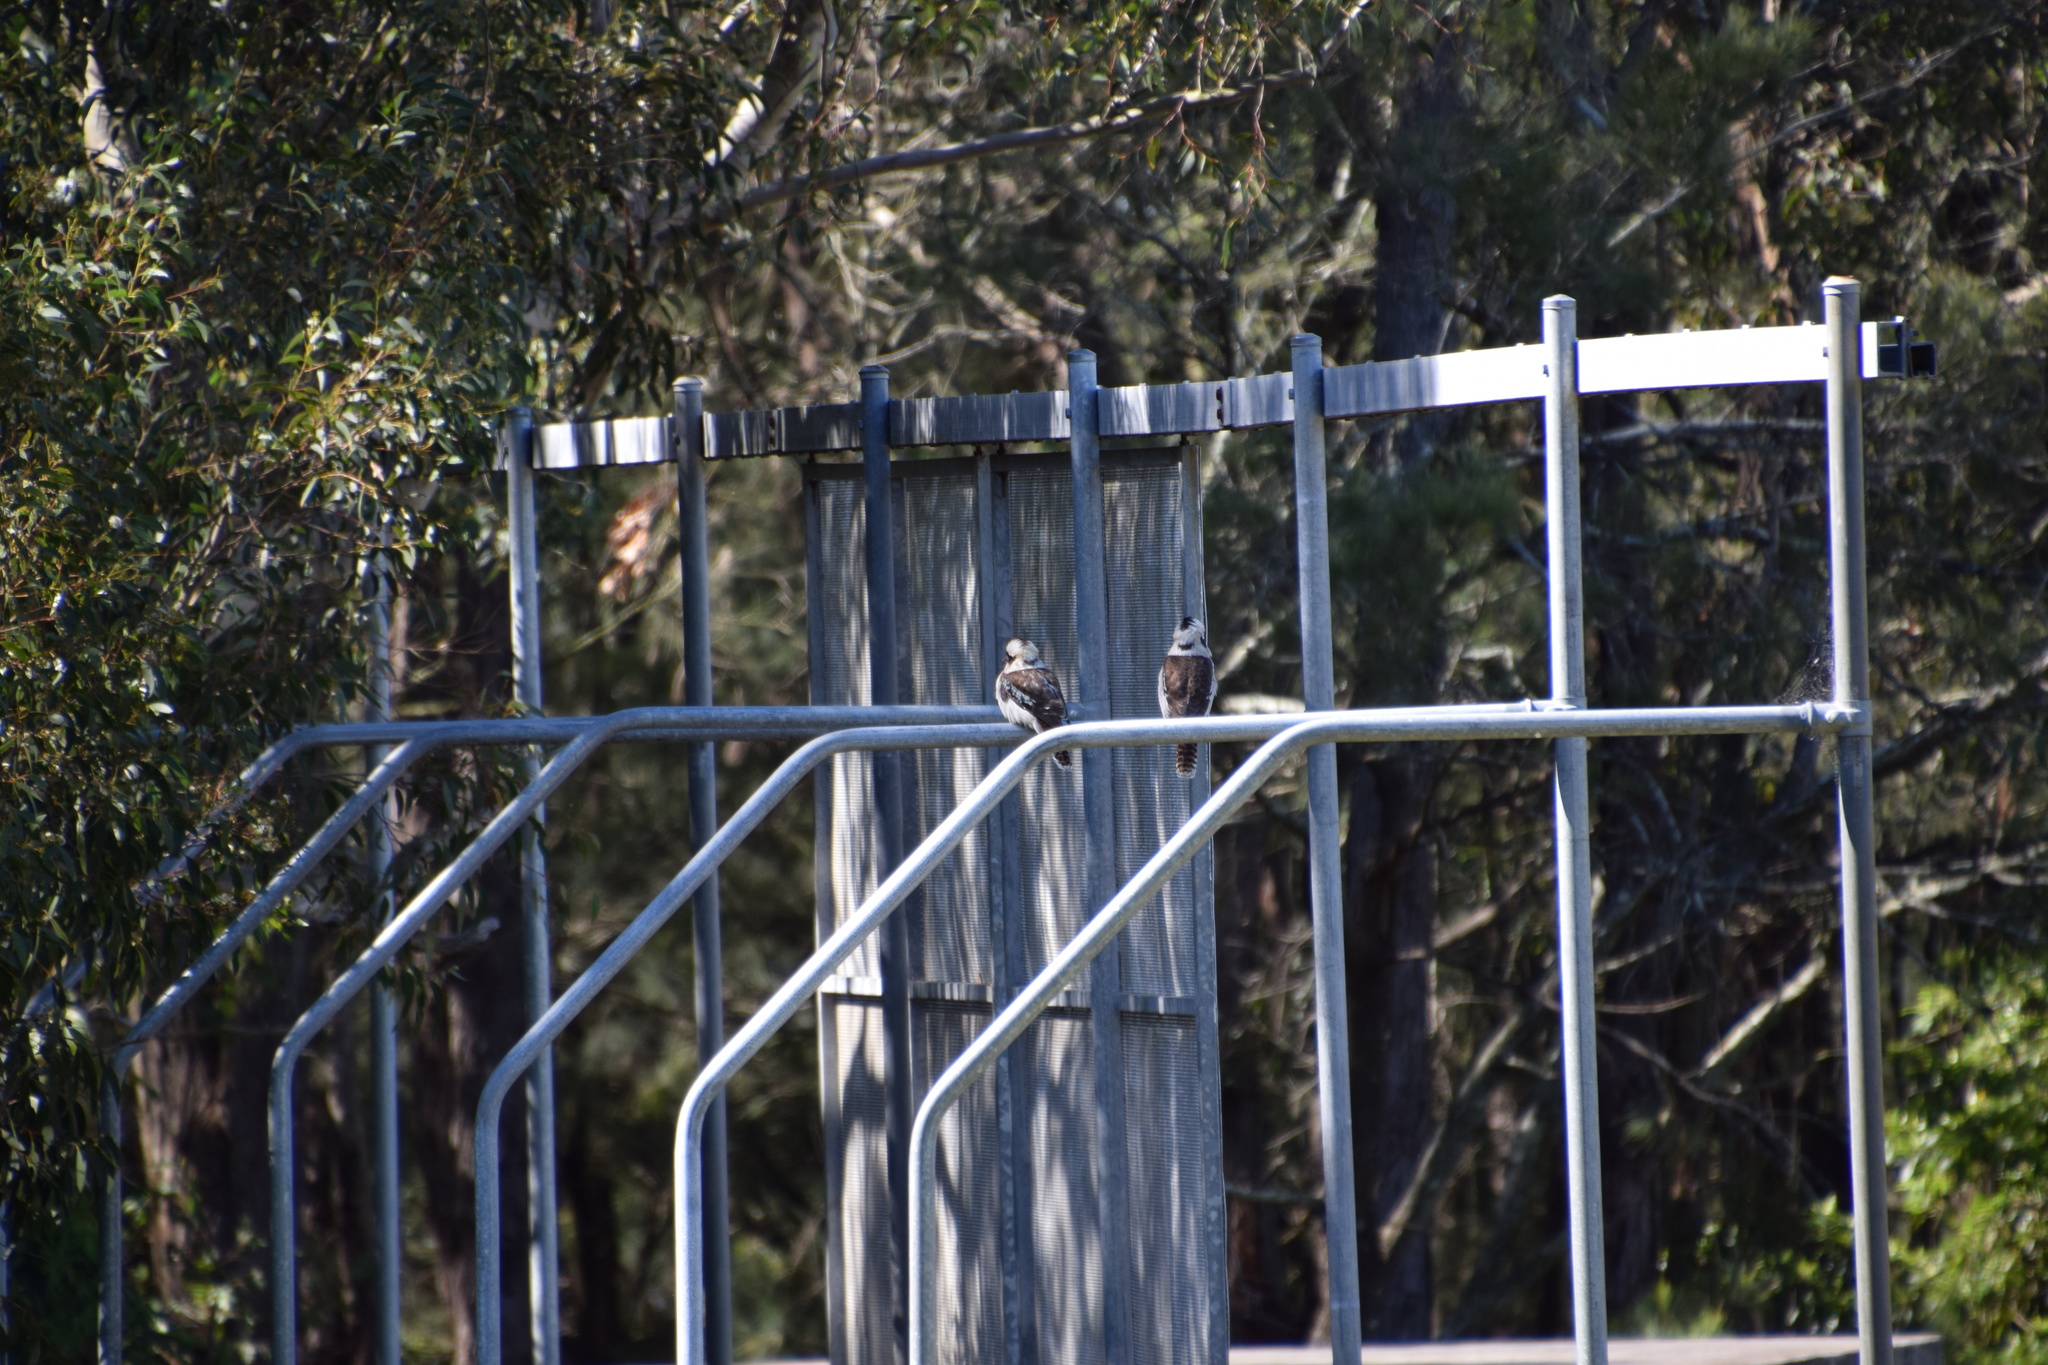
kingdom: Animalia
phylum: Chordata
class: Aves
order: Coraciiformes
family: Alcedinidae
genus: Dacelo
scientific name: Dacelo novaeguineae
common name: Laughing kookaburra
